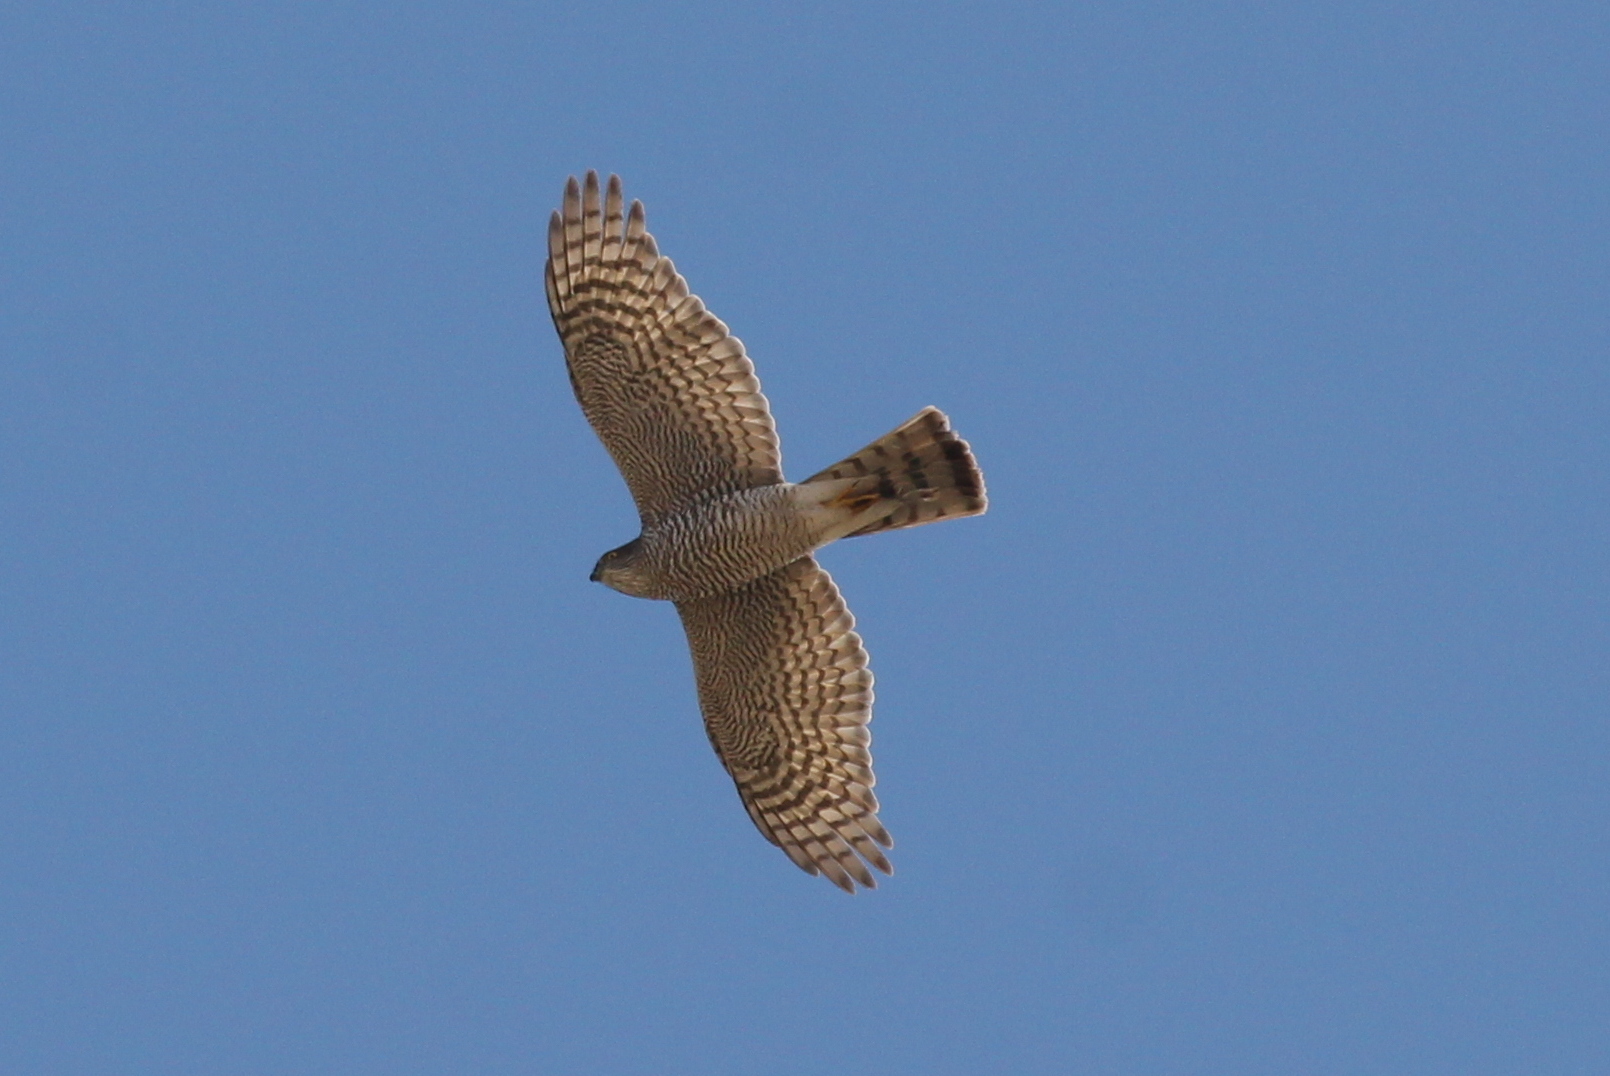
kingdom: Animalia
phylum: Chordata
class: Aves
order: Accipitriformes
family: Accipitridae
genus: Accipiter
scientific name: Accipiter nisus
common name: Eurasian sparrowhawk
